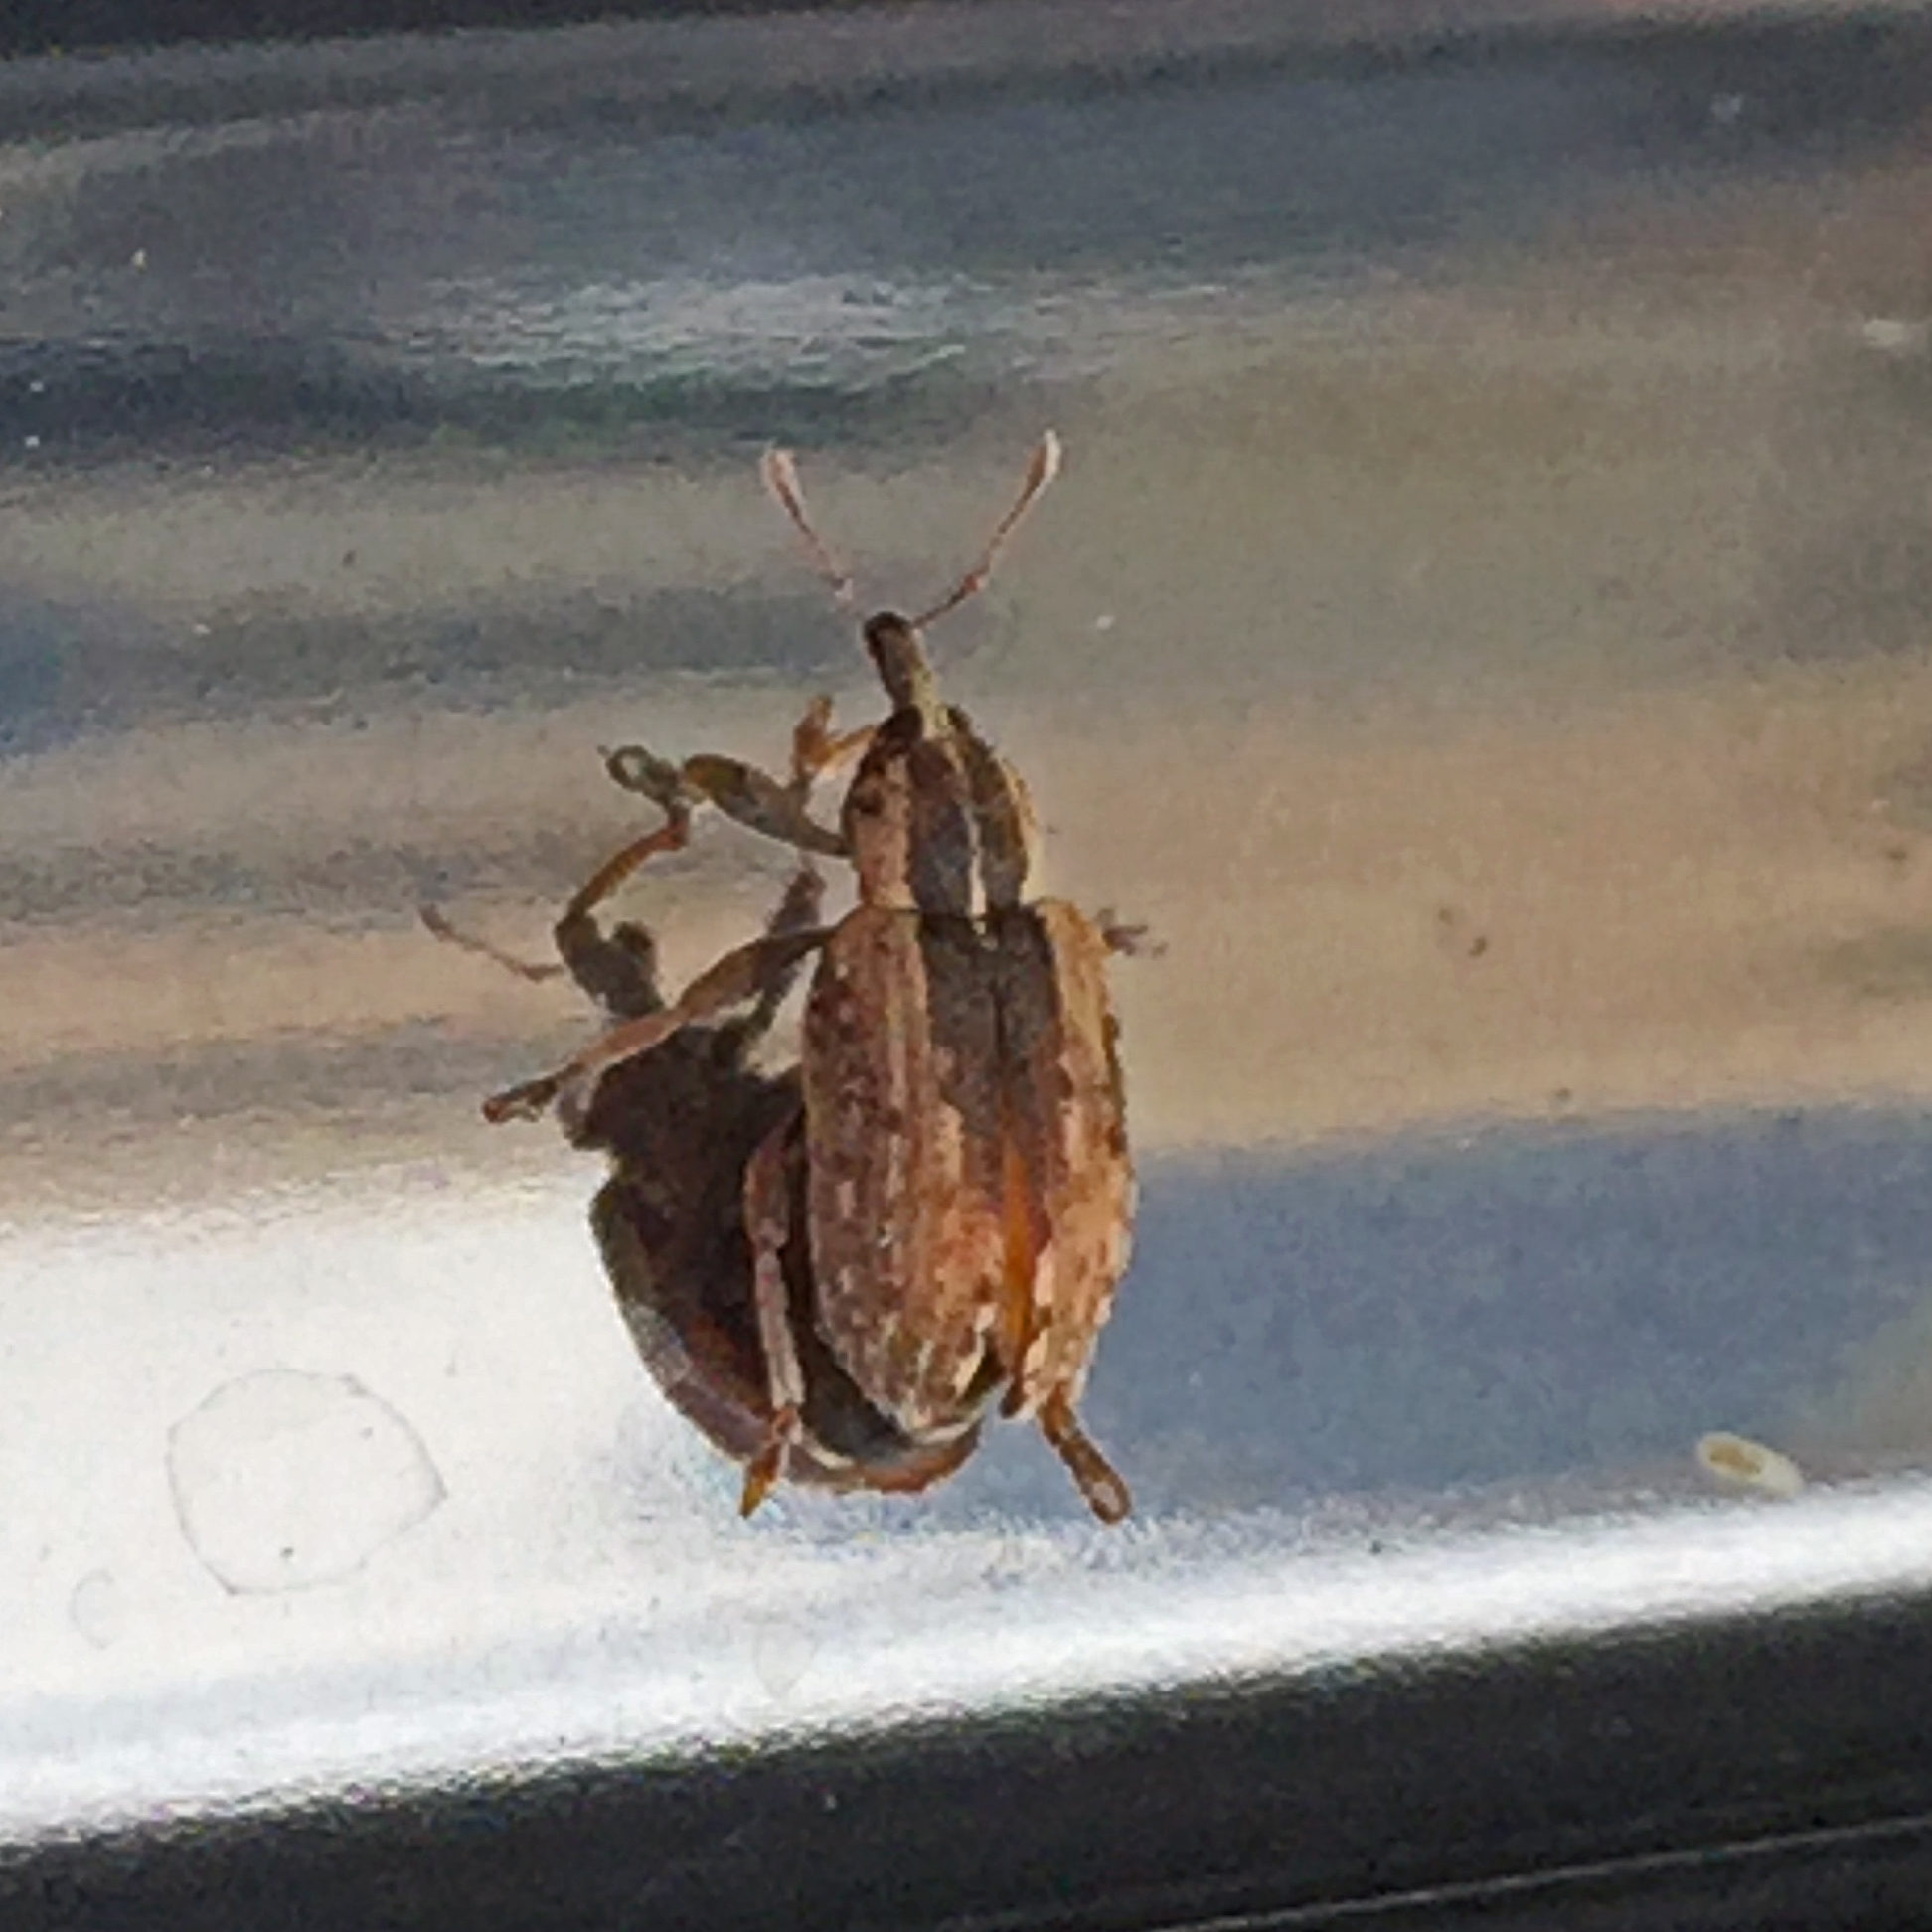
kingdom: Animalia
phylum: Arthropoda
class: Insecta
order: Coleoptera
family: Curculionidae
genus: Hypera
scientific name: Hypera postica
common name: Weevil
